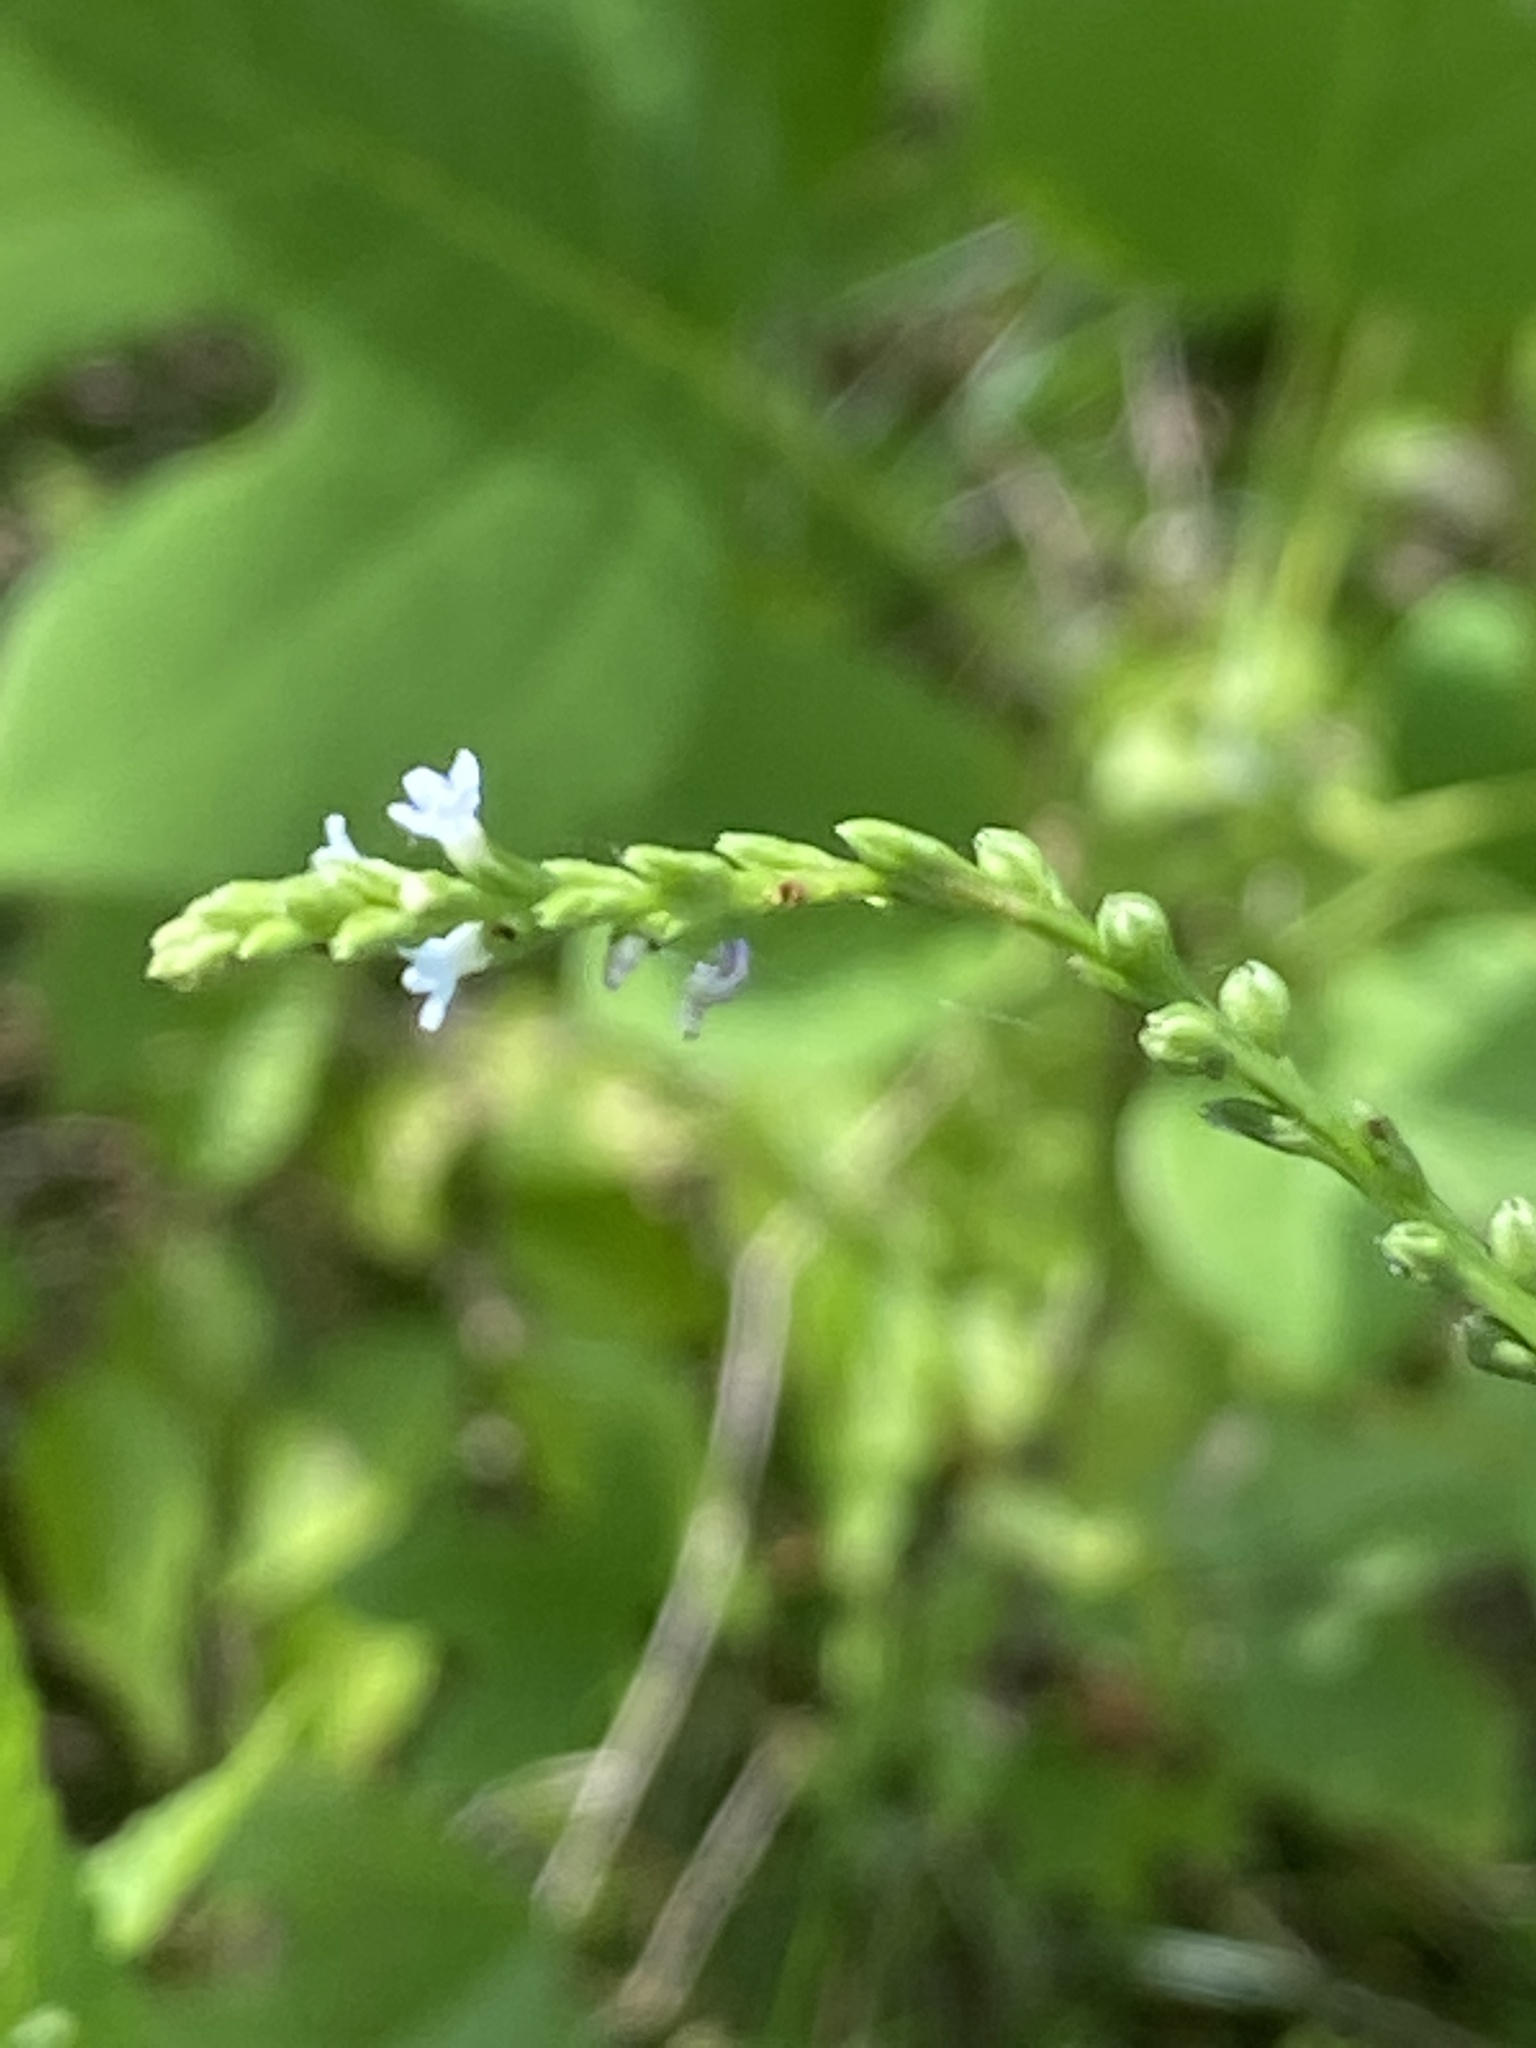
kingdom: Plantae
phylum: Tracheophyta
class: Magnoliopsida
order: Lamiales
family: Verbenaceae
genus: Verbena
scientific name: Verbena urticifolia
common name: Nettle-leaved vervain
